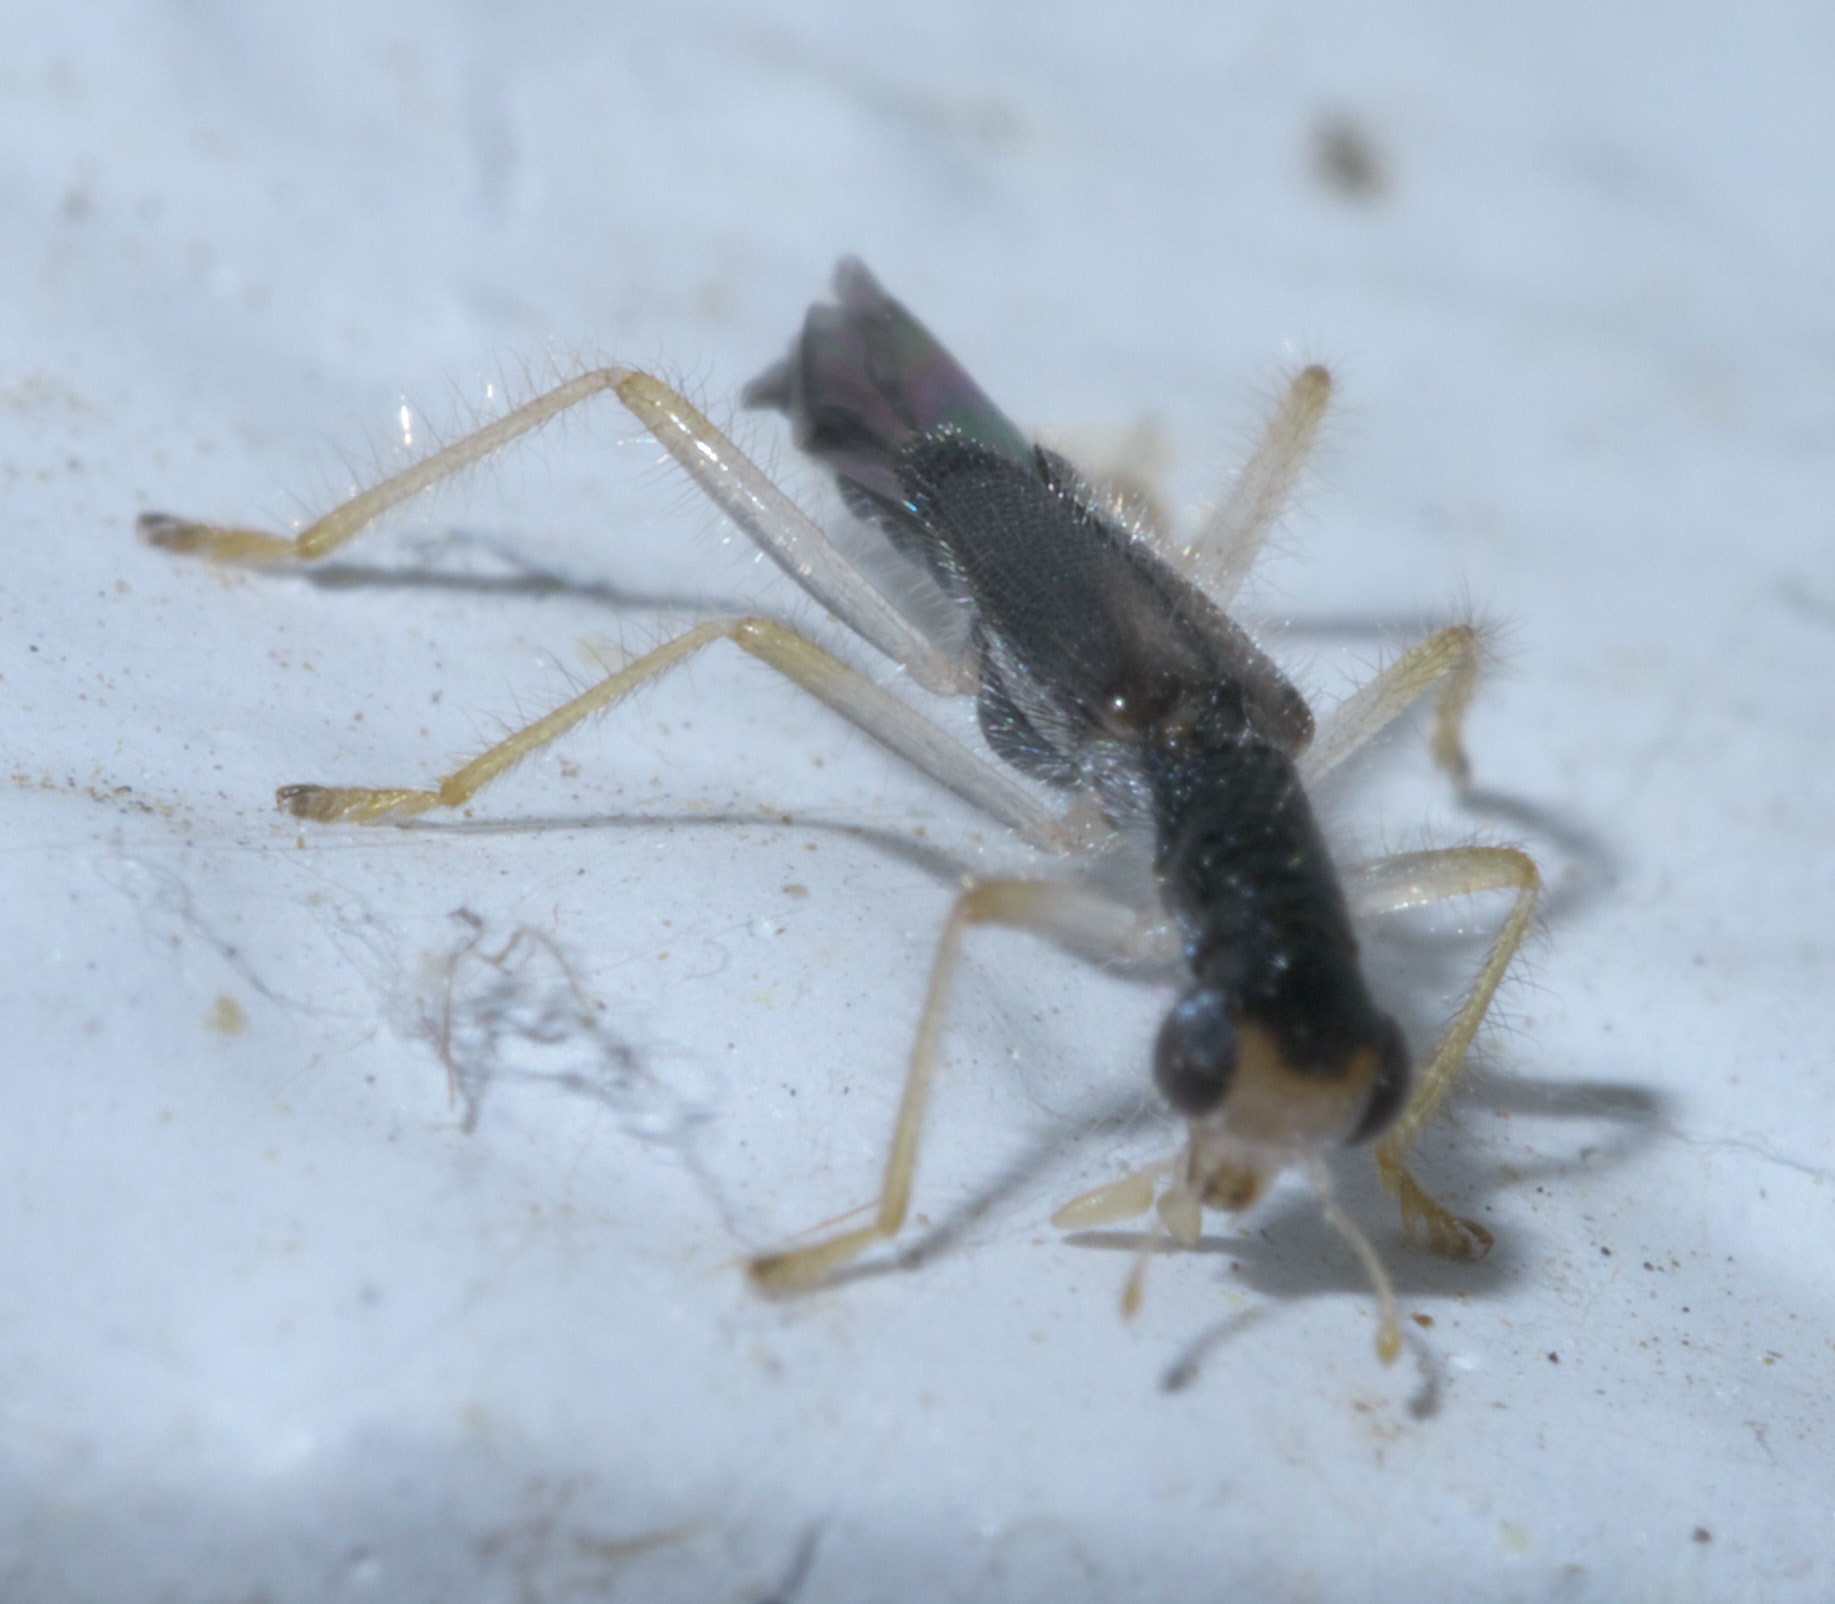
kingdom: Animalia
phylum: Arthropoda
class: Insecta
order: Coleoptera
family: Cleridae
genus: Isohydnocera
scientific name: Isohydnocera curtipennis
